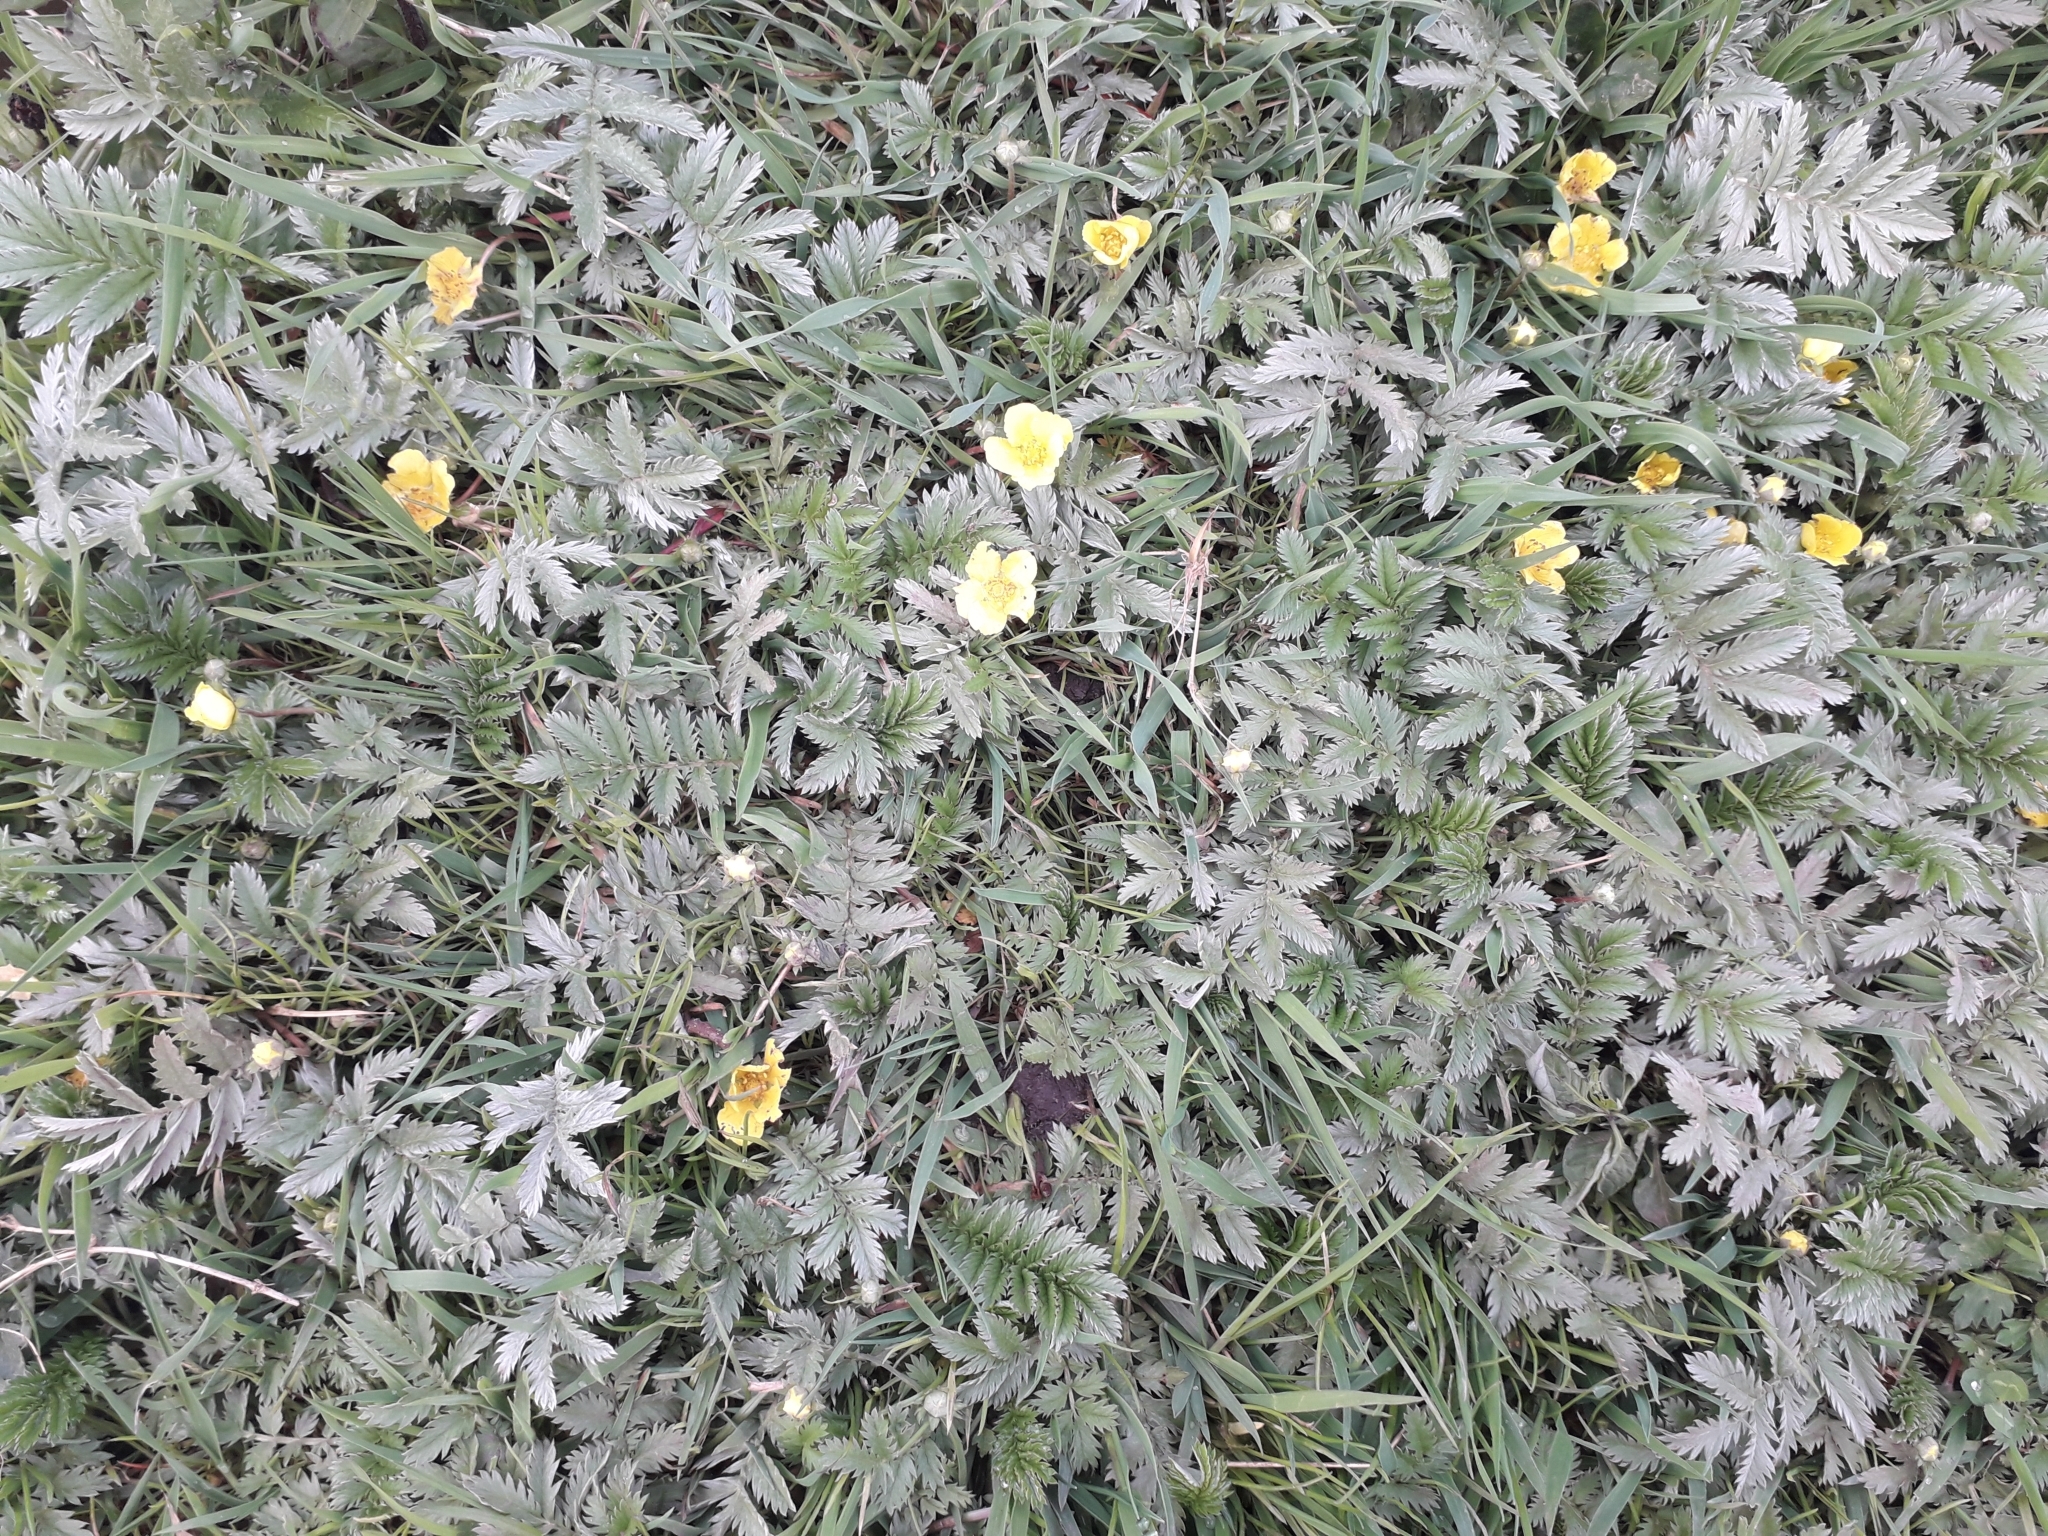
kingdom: Plantae
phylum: Tracheophyta
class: Magnoliopsida
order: Rosales
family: Rosaceae
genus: Argentina
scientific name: Argentina anserina
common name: Common silverweed
